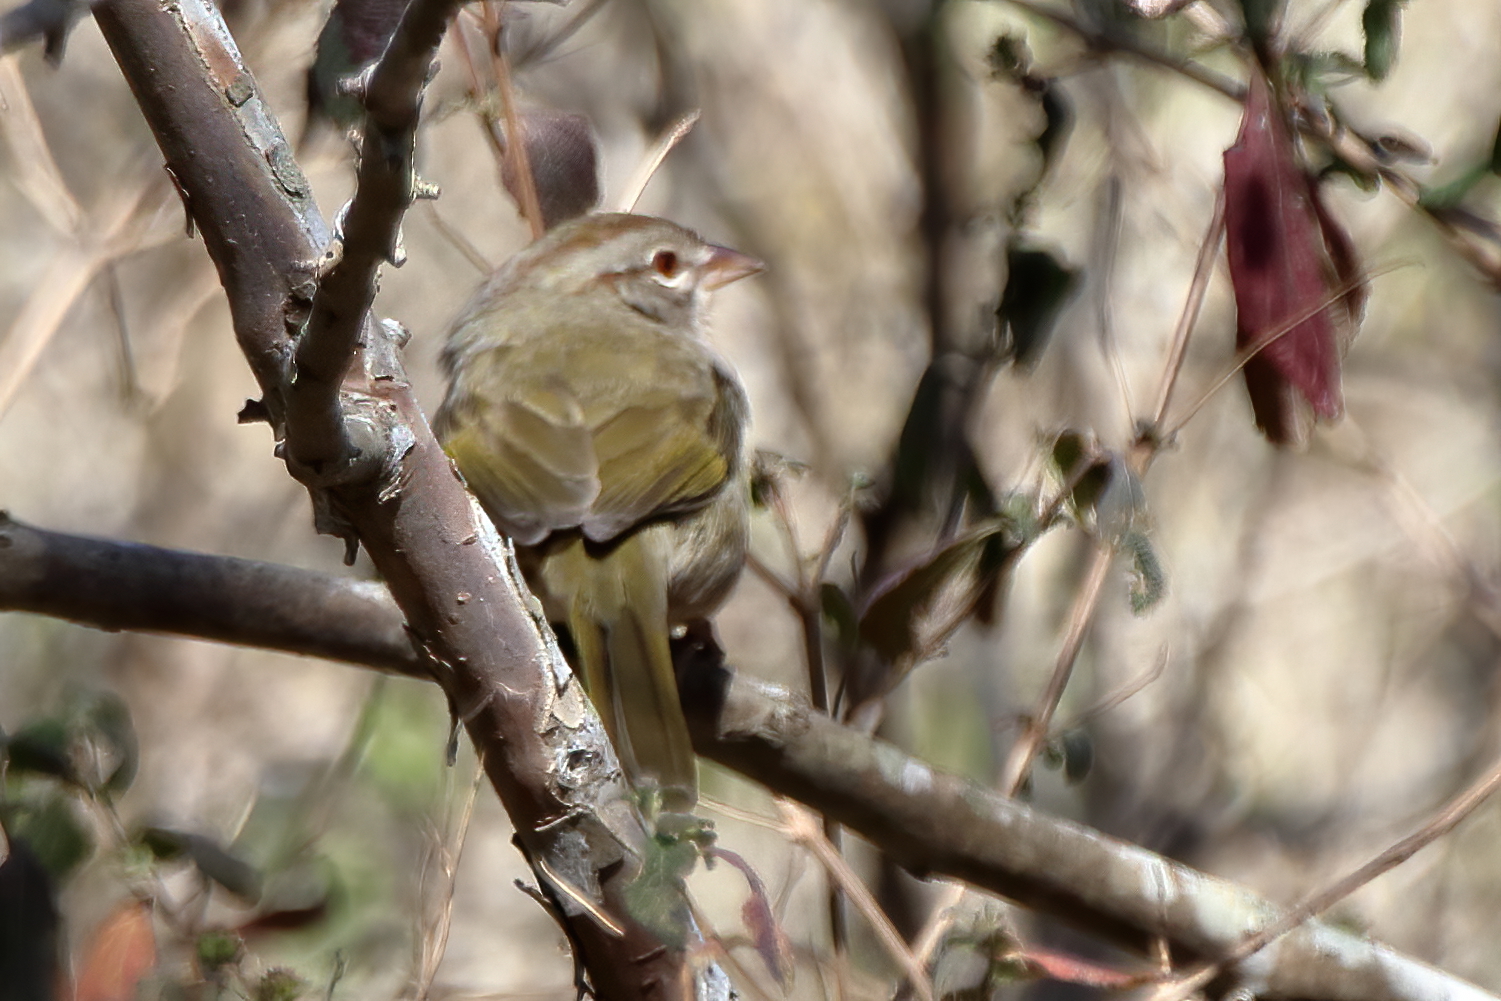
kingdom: Animalia
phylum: Chordata
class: Aves
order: Passeriformes
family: Passerellidae
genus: Arremonops
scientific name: Arremonops rufivirgatus
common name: Olive sparrow
